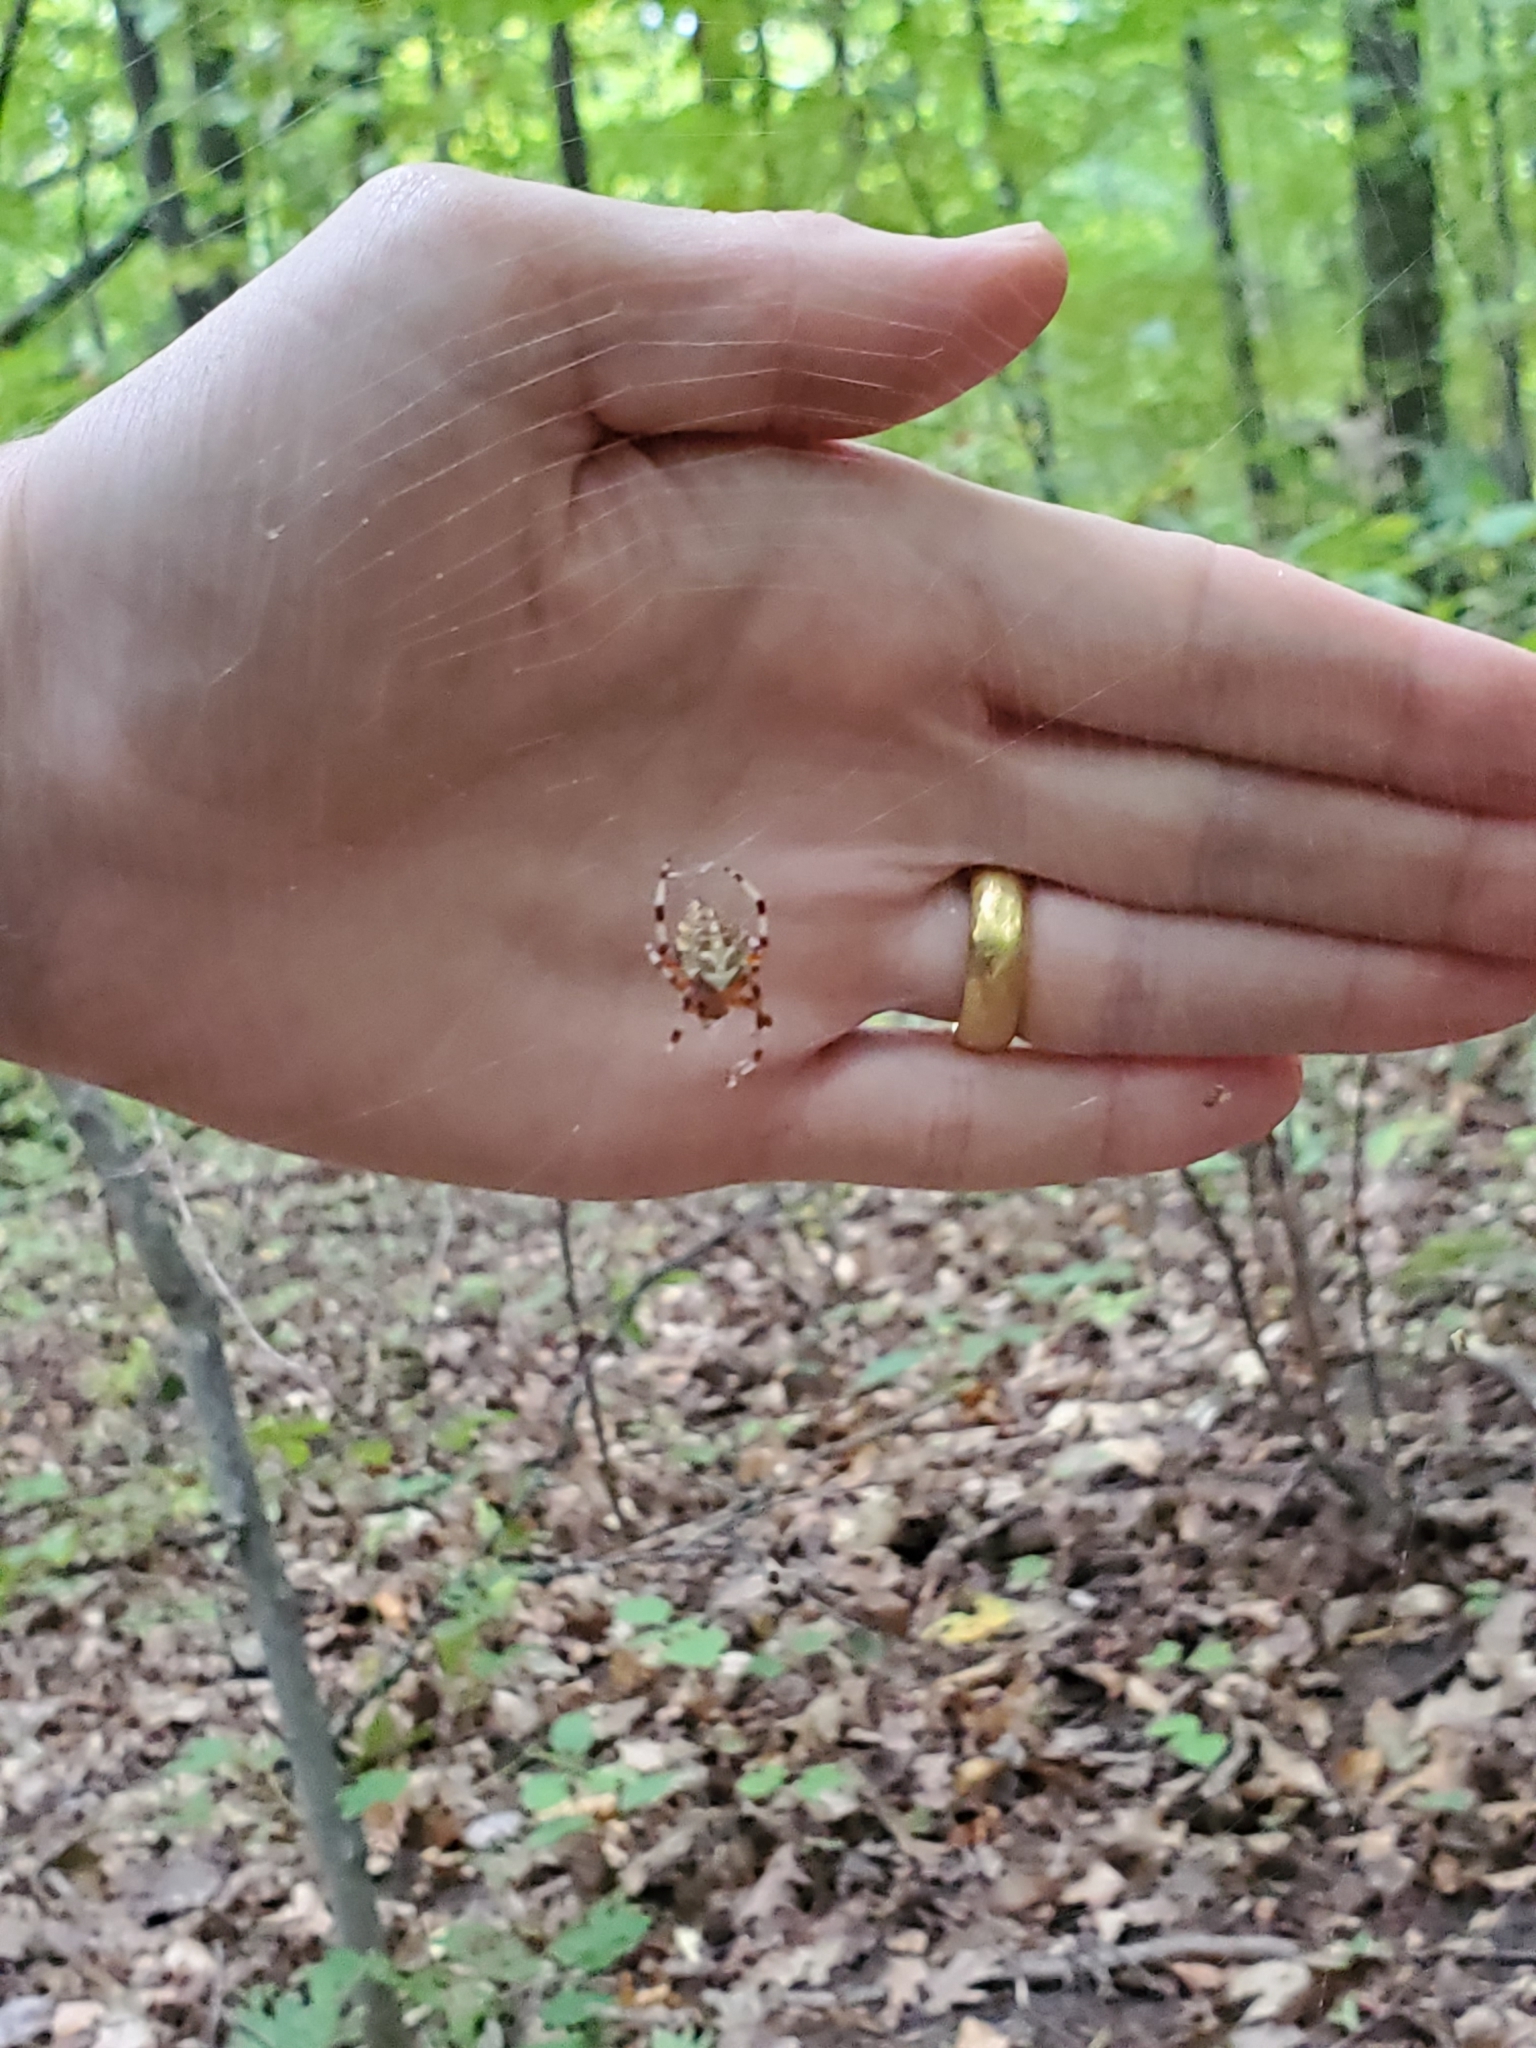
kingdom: Animalia
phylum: Arthropoda
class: Arachnida
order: Araneae
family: Araneidae
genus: Araneus
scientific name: Araneus marmoreus
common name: Marbled orbweaver
